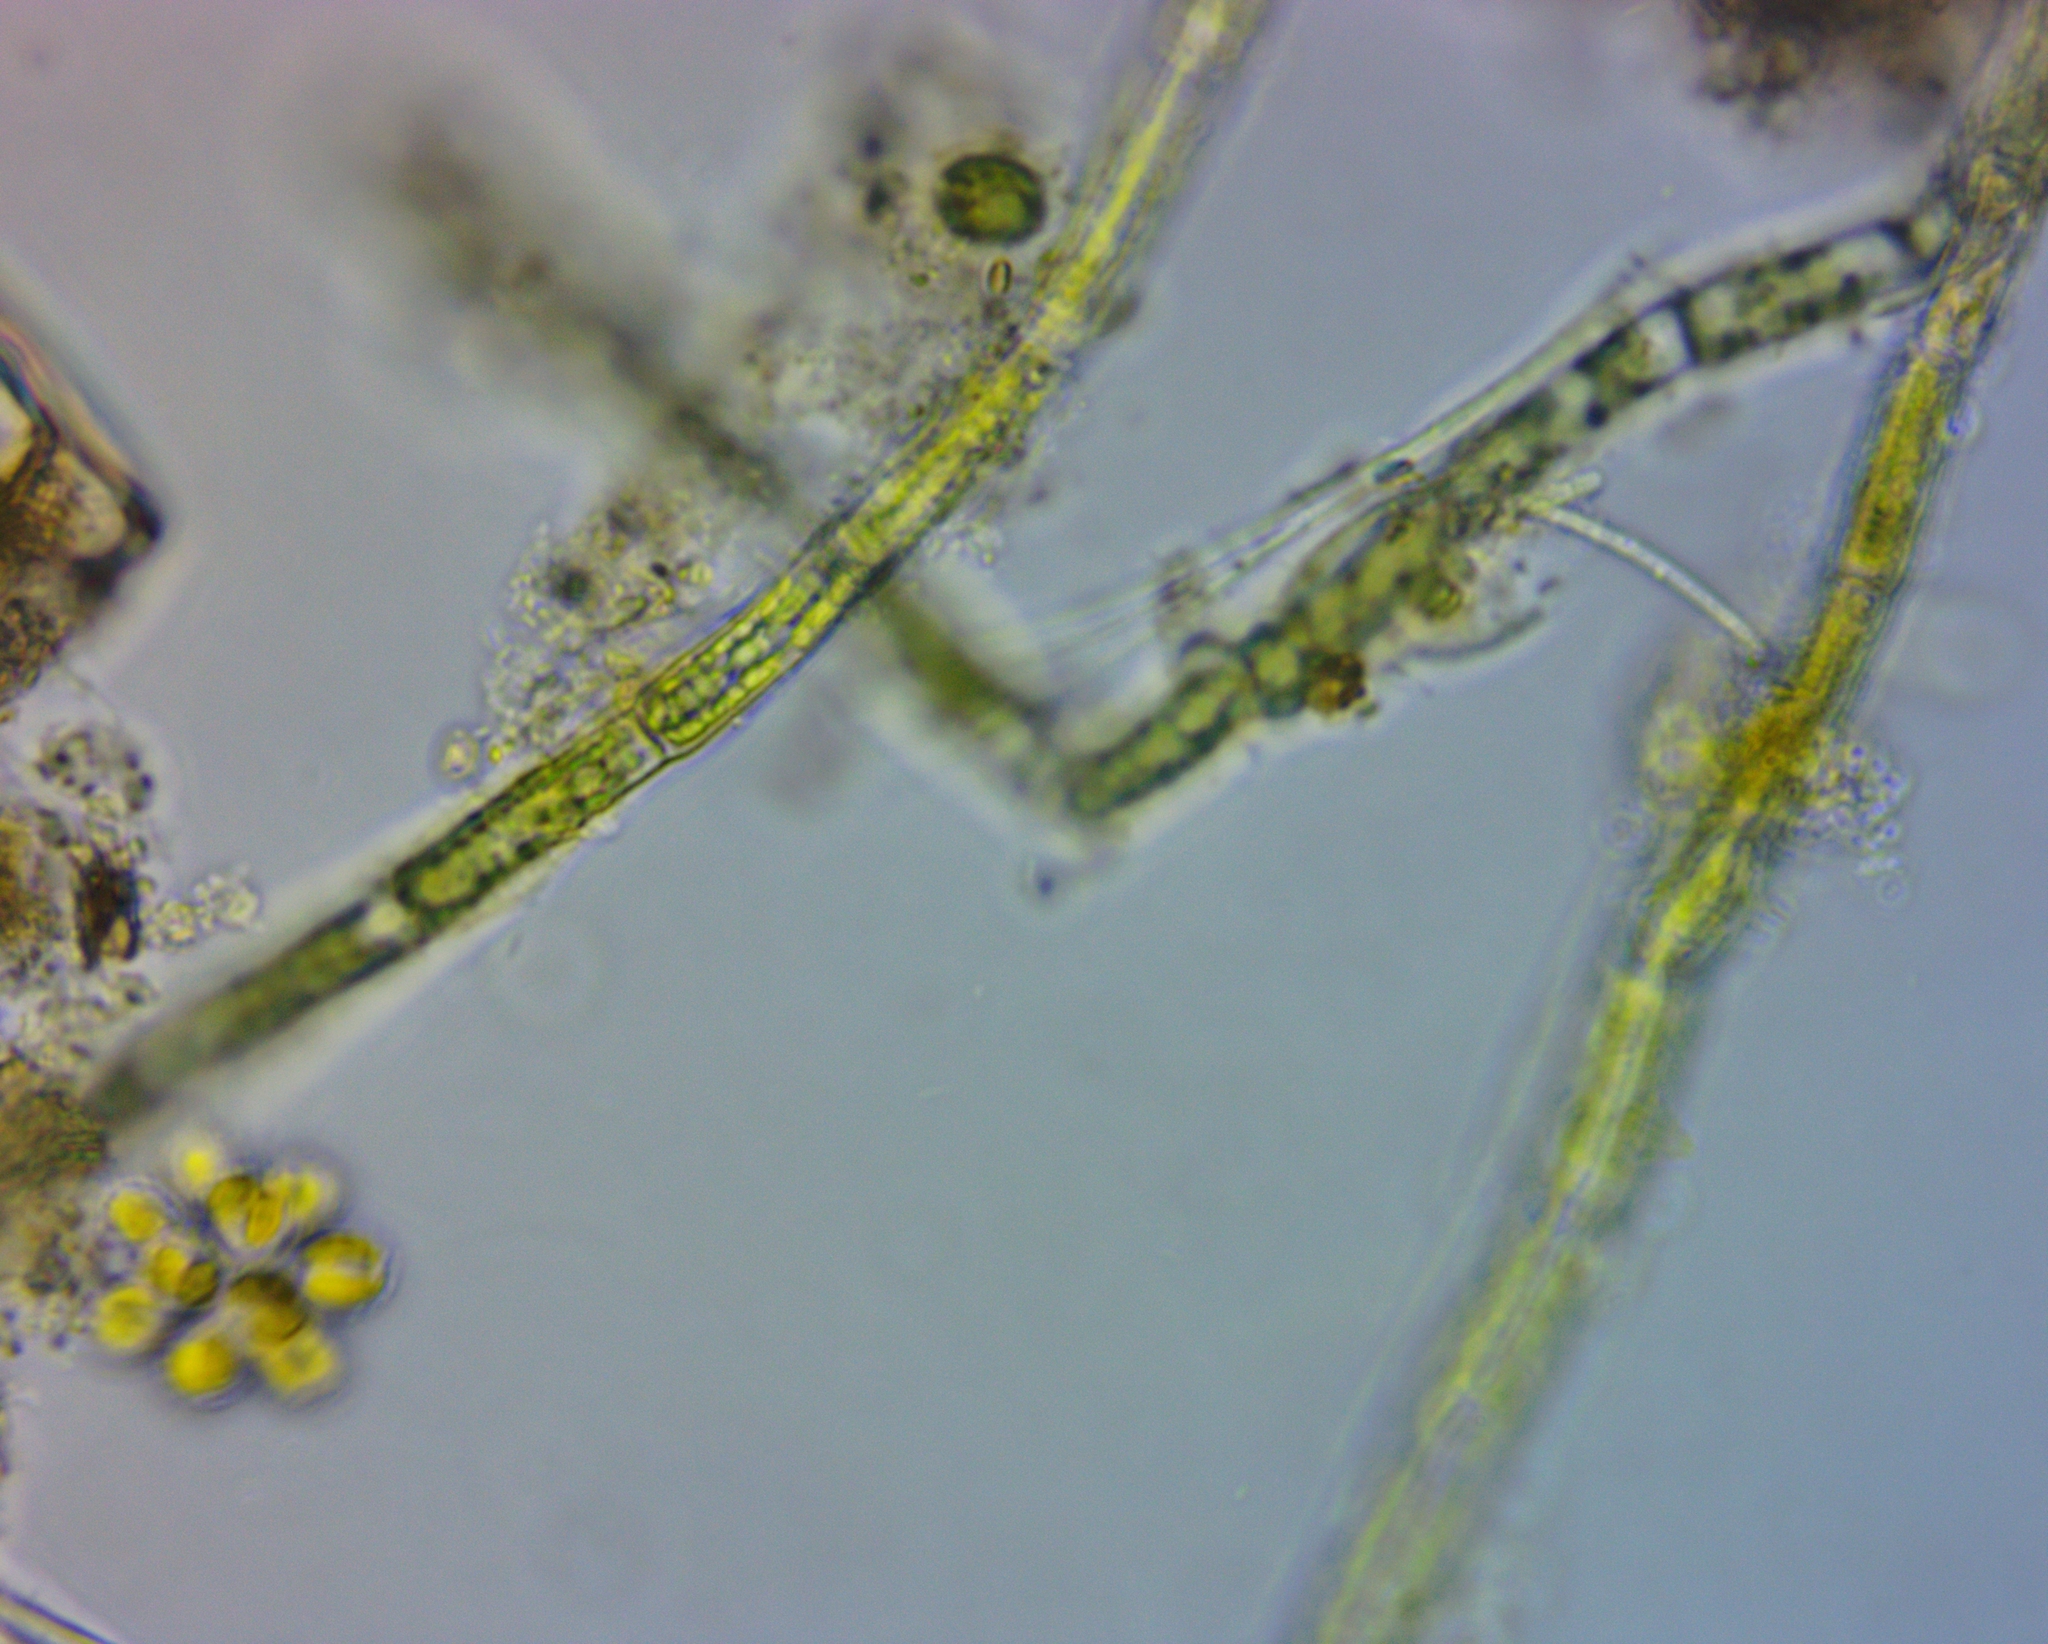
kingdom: Chromista
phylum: Ochrophyta
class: Synurophyceae
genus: Synura
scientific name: Synura
